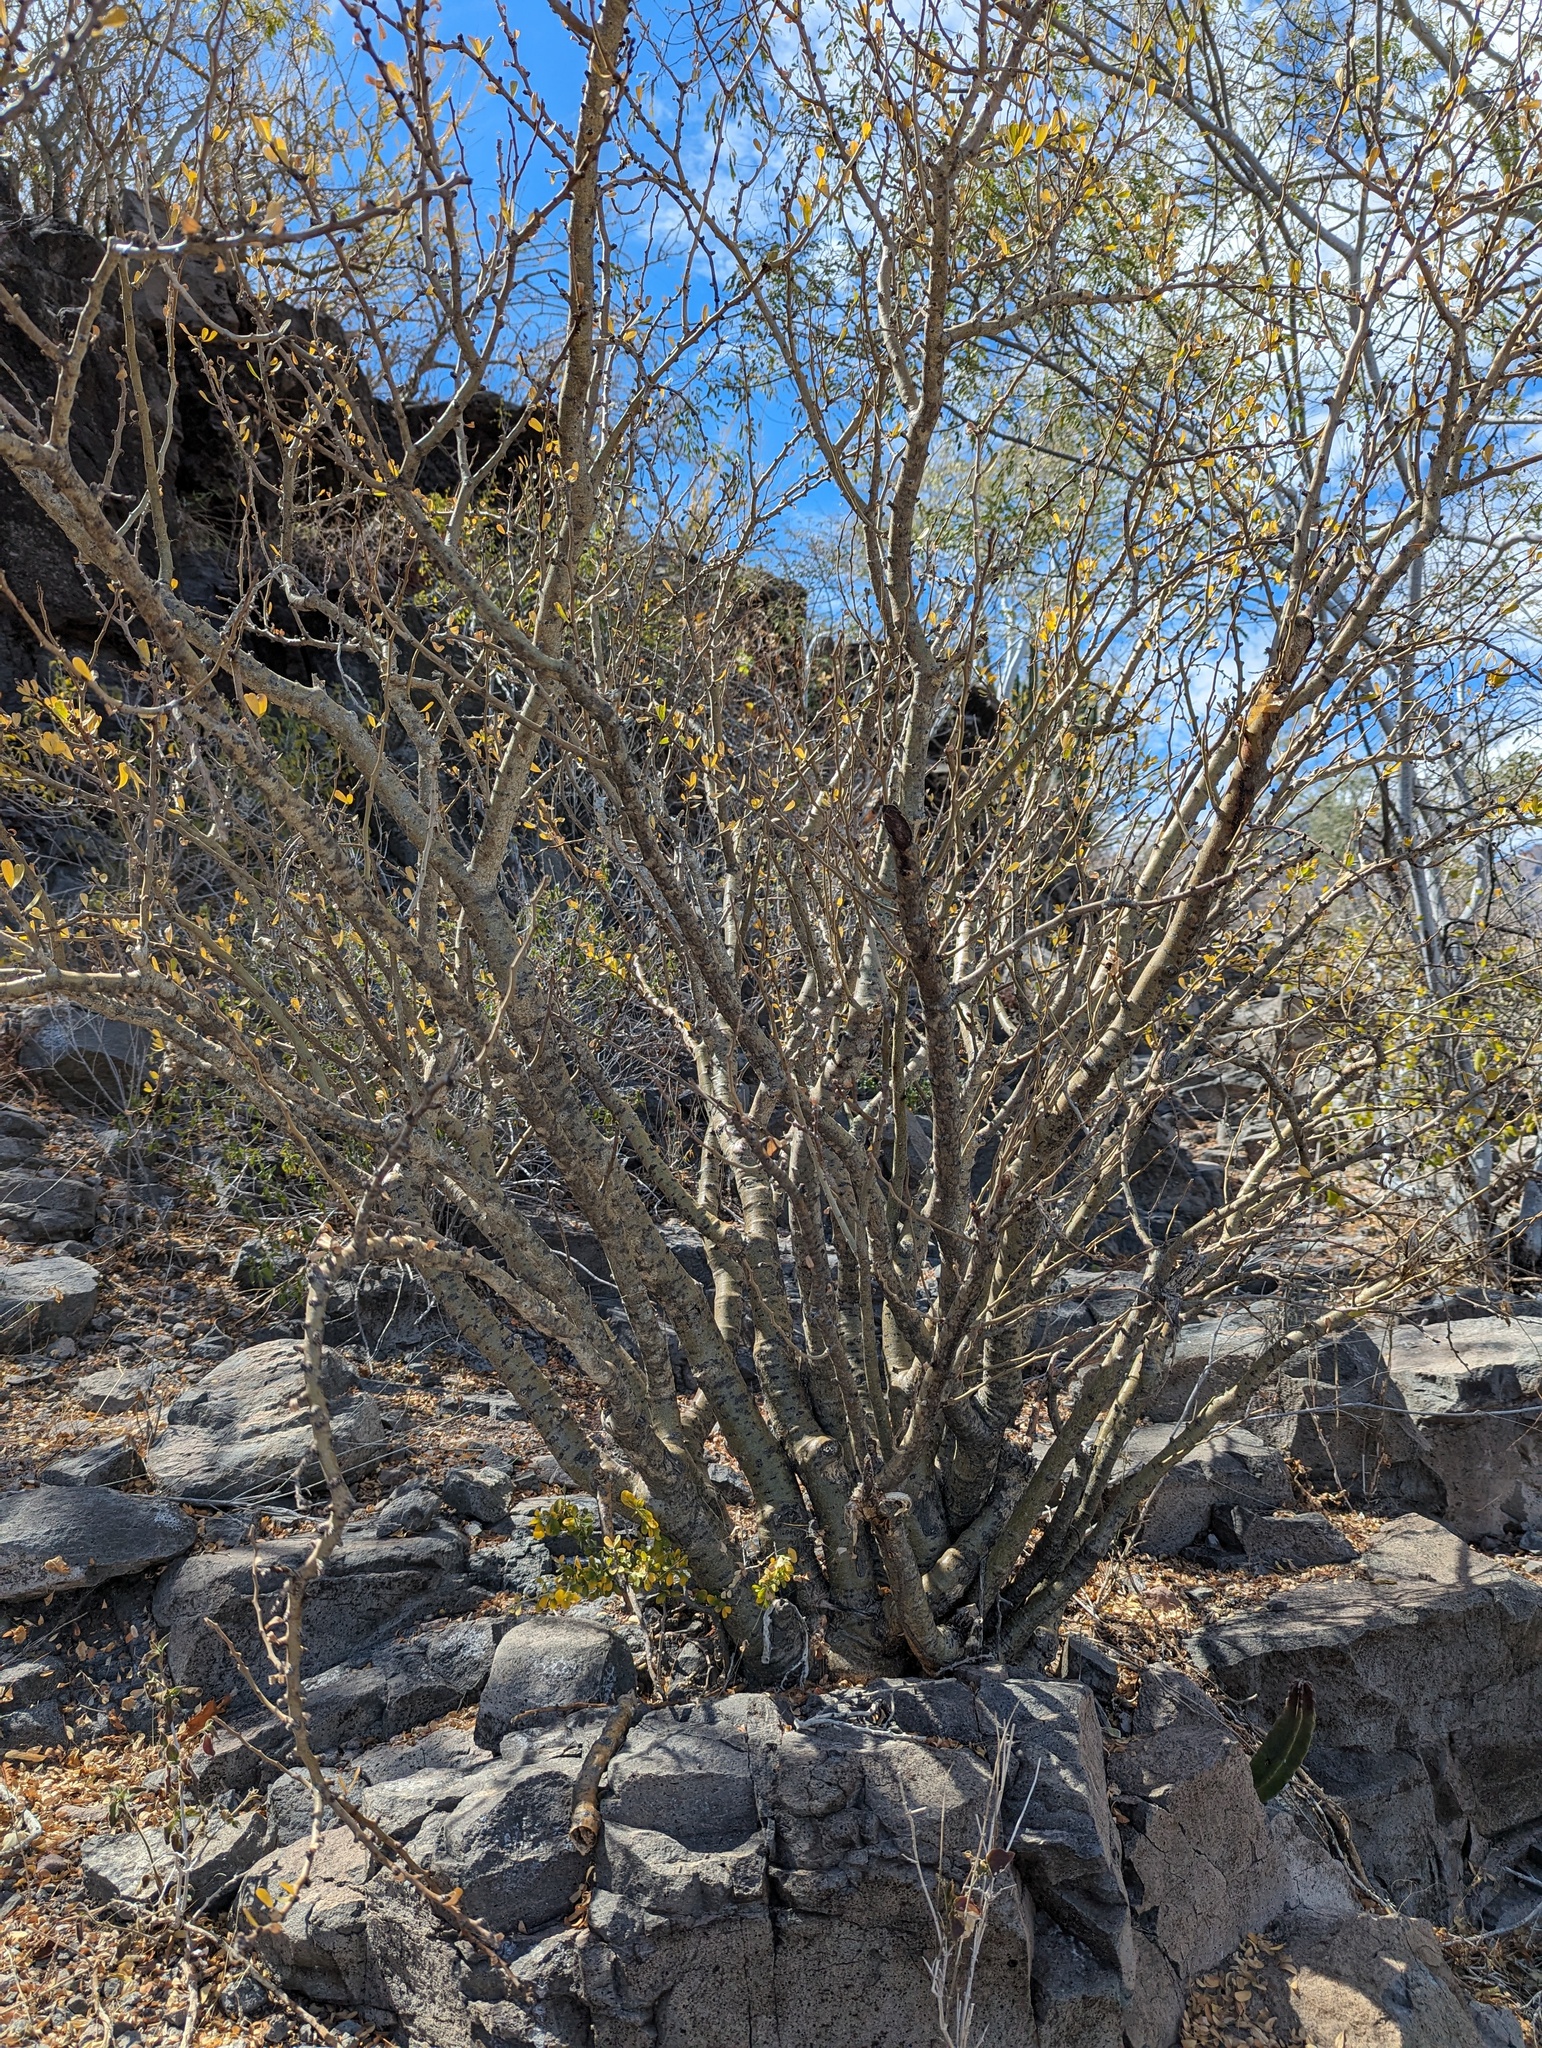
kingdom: Plantae
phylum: Tracheophyta
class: Magnoliopsida
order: Malpighiales
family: Euphorbiaceae
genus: Jatropha
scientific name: Jatropha cuneata
